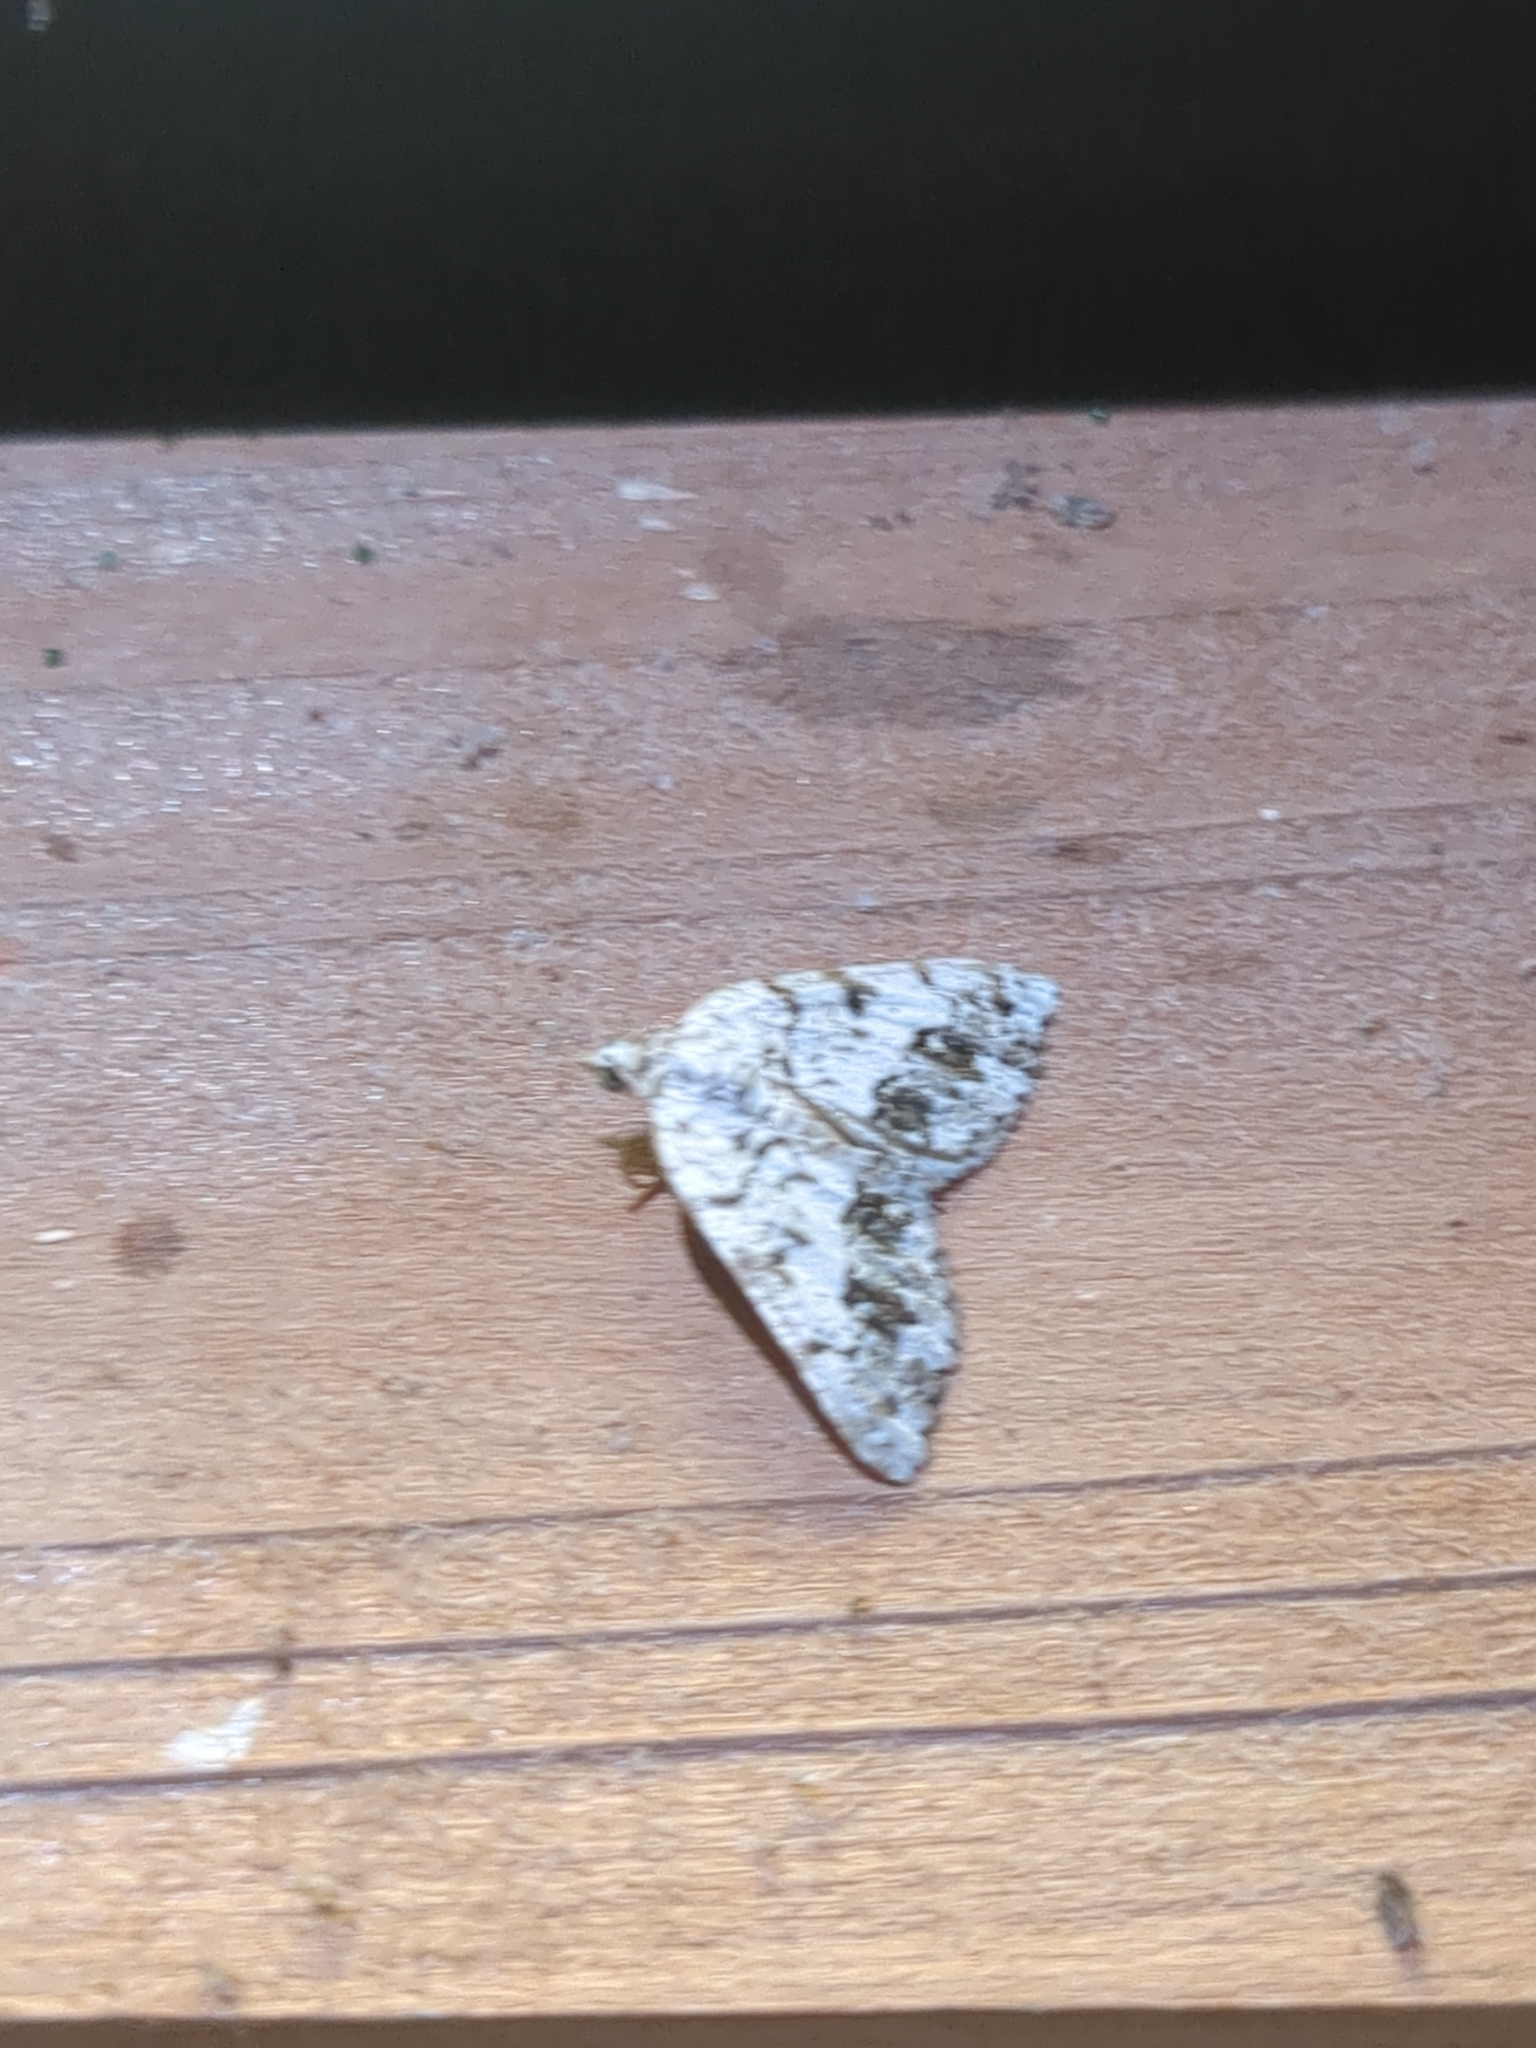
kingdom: Animalia
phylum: Arthropoda
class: Insecta
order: Lepidoptera
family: Geometridae
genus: Macaria
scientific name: Macaria graphidaria
